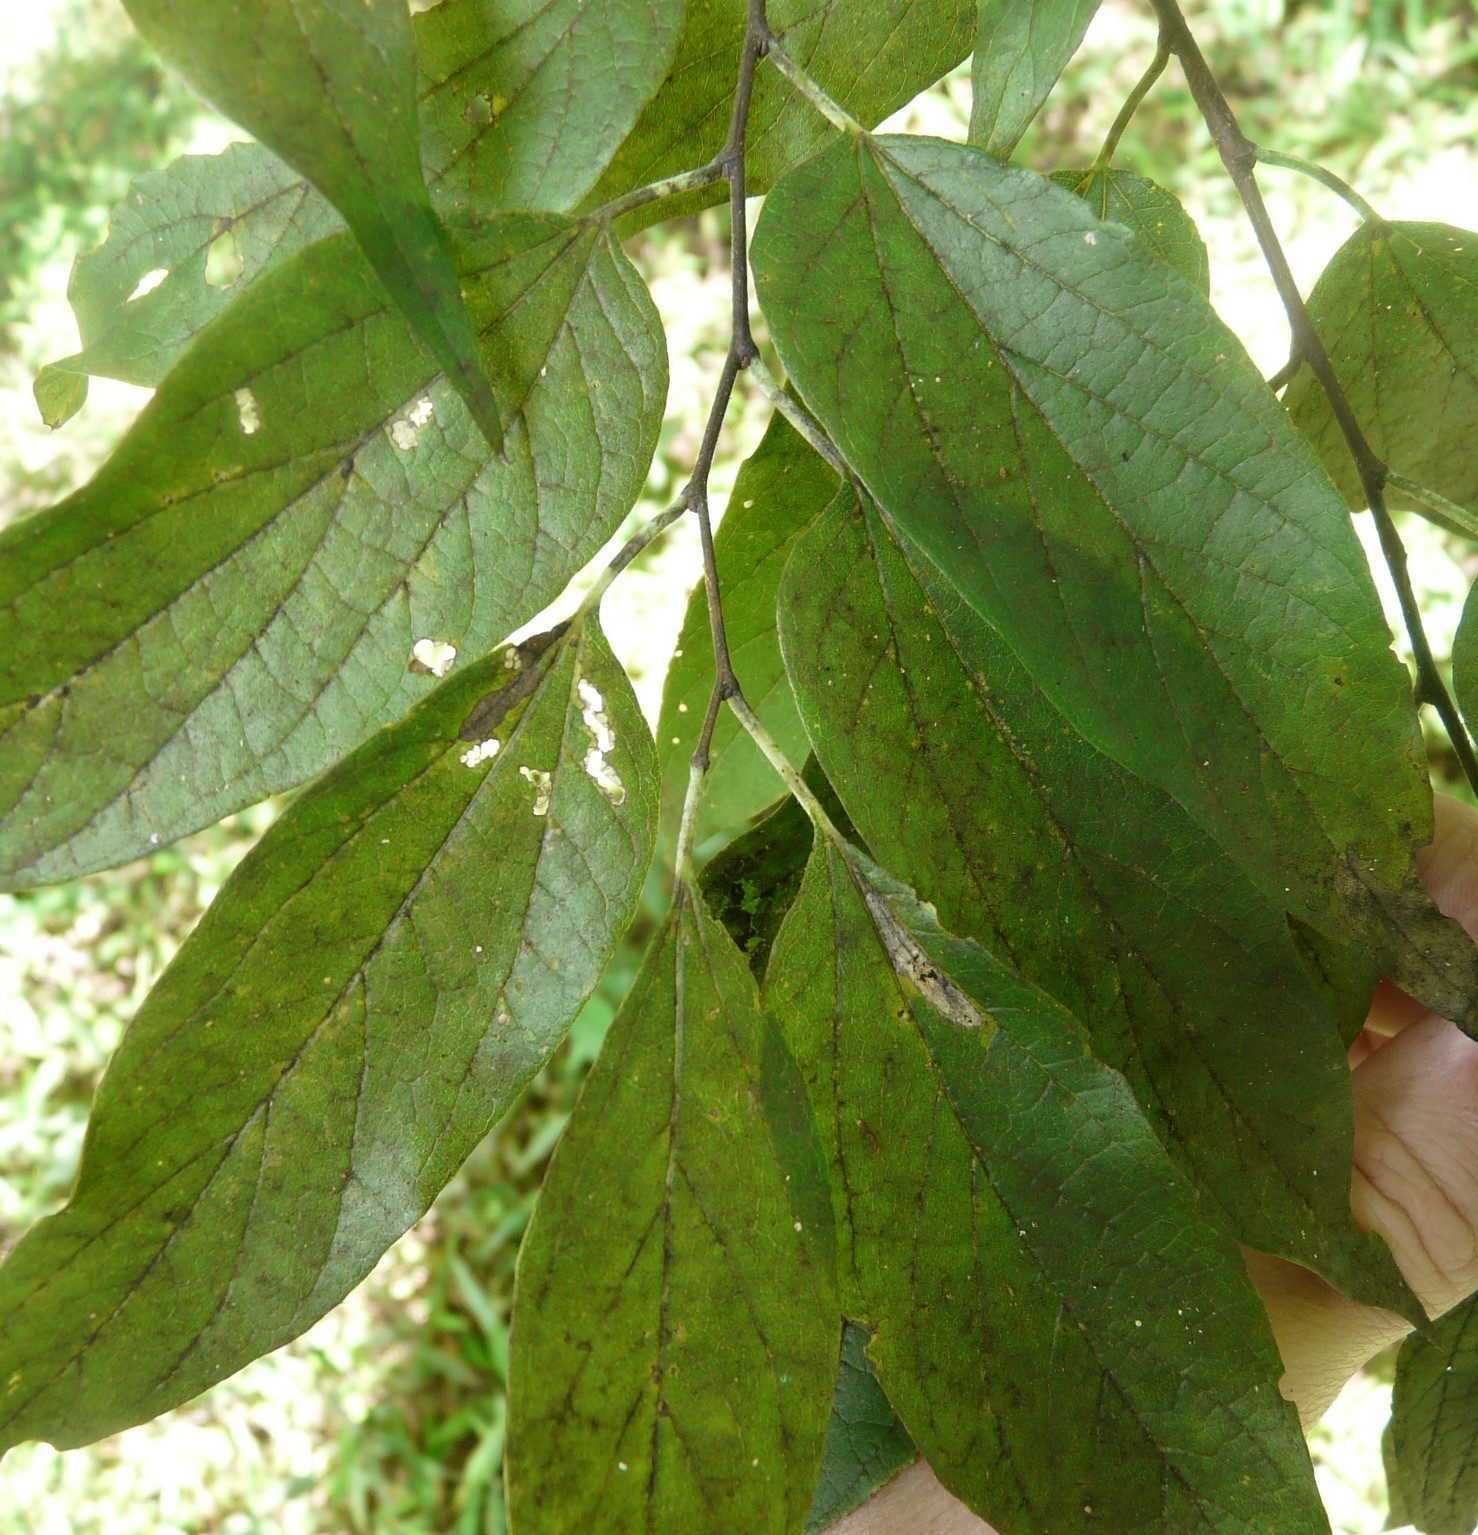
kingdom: Plantae
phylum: Tracheophyta
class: Magnoliopsida
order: Rosales
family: Cannabaceae
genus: Celtis
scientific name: Celtis laevigata
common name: Sugarberry
